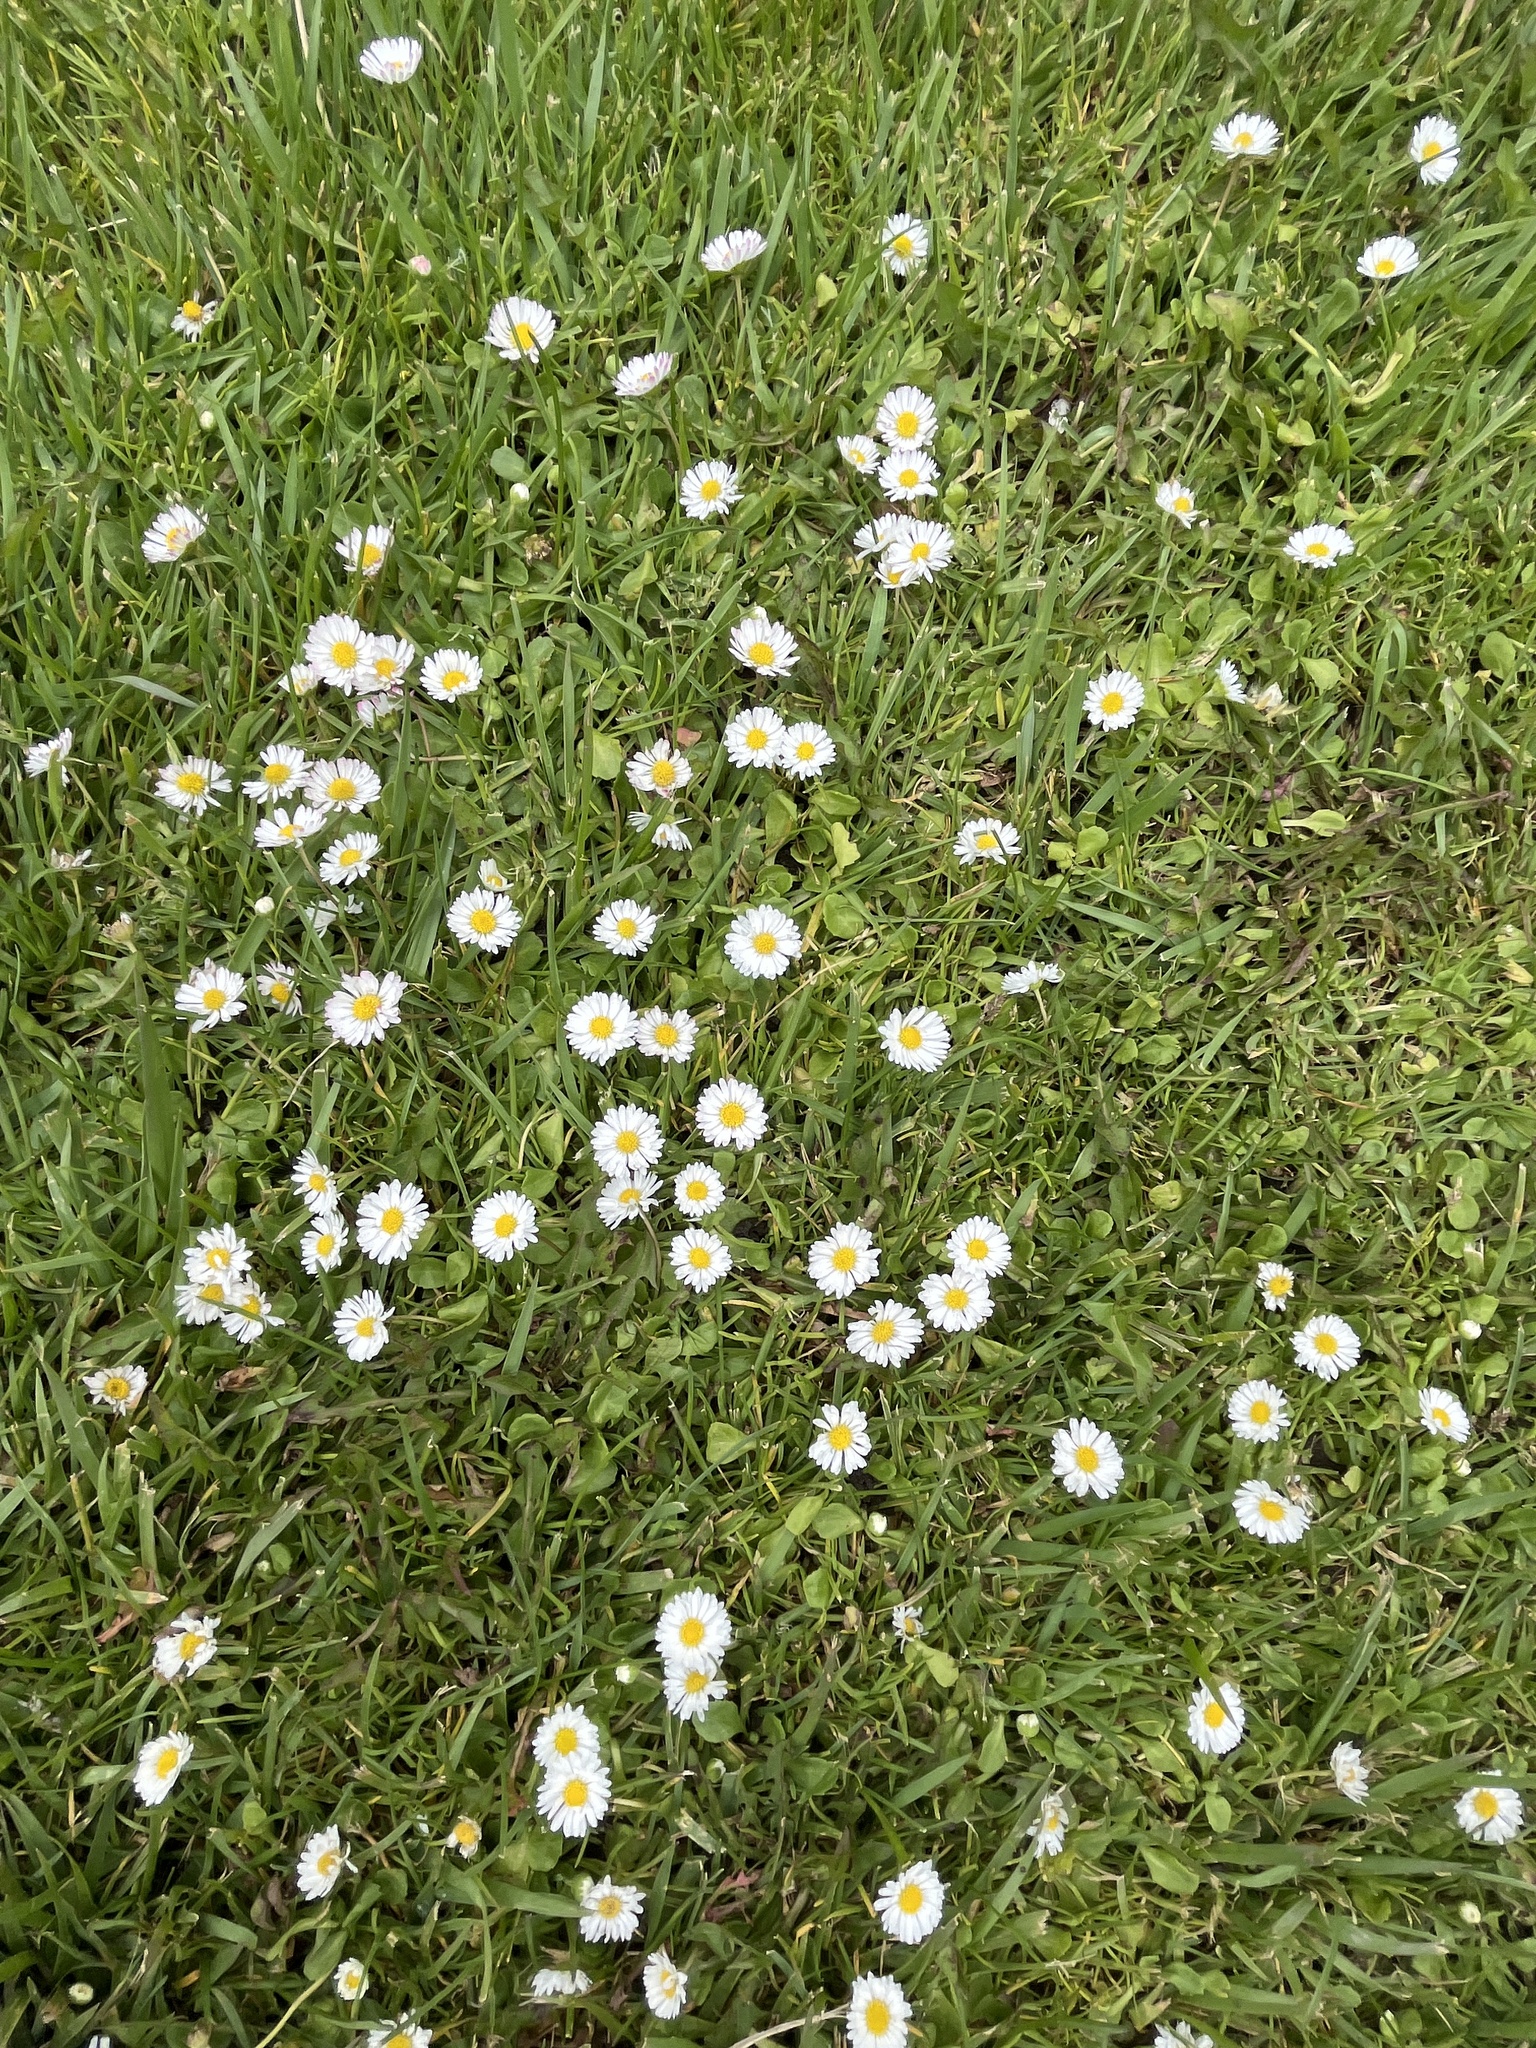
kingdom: Plantae
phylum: Tracheophyta
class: Magnoliopsida
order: Asterales
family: Asteraceae
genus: Bellis
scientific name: Bellis perennis
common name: Lawndaisy
